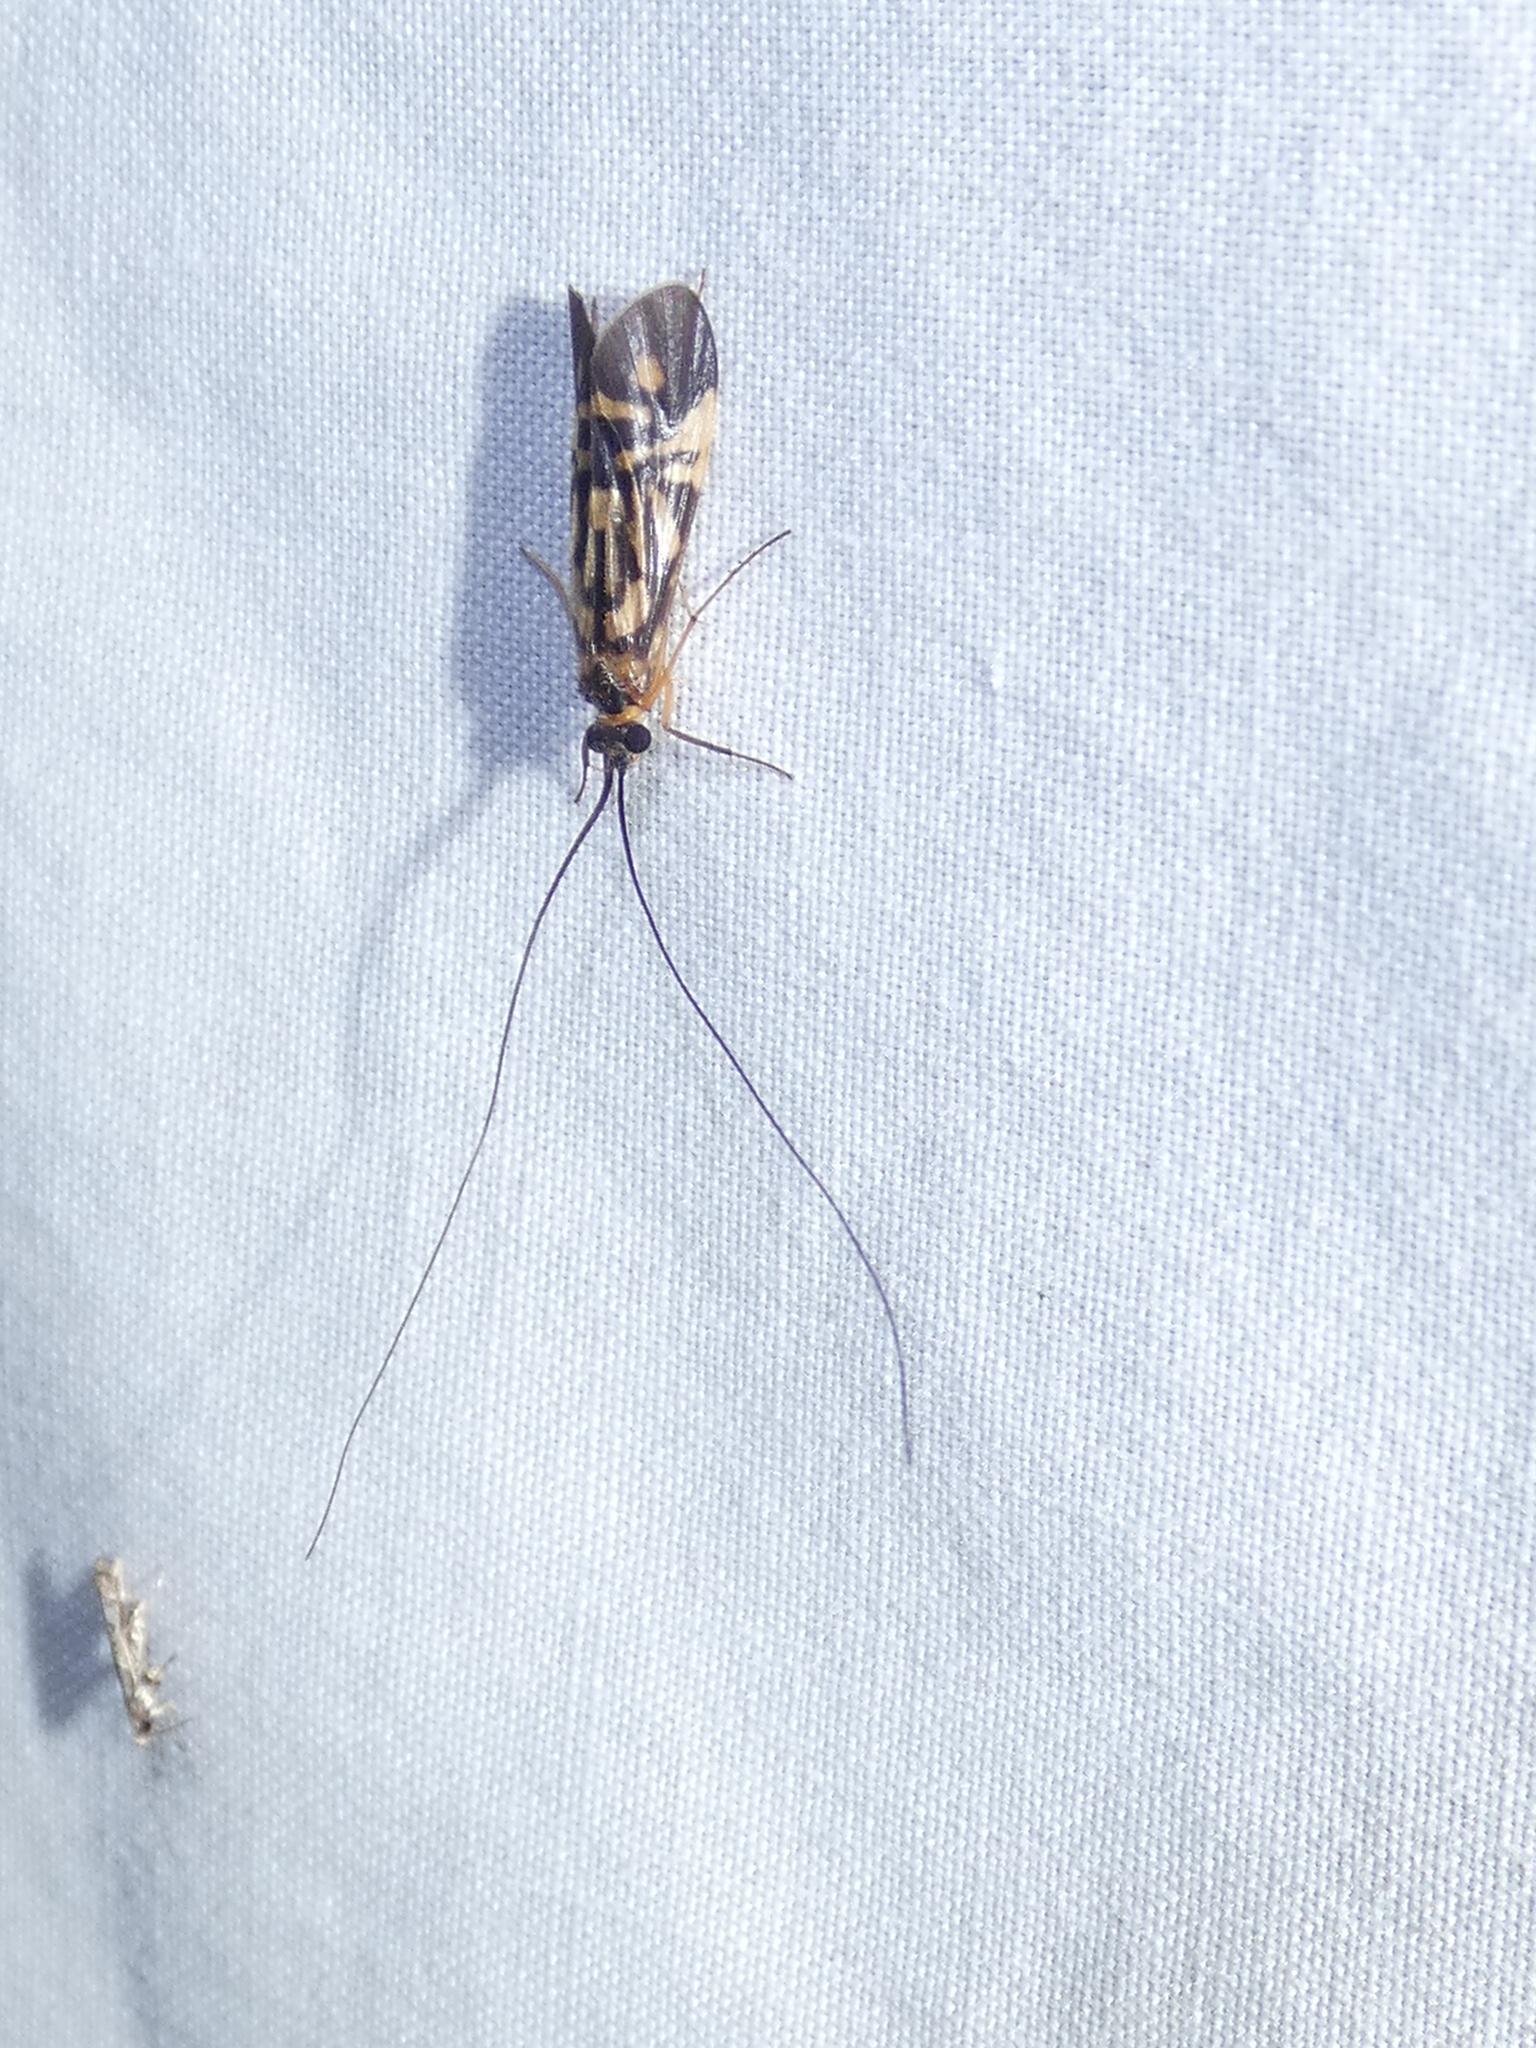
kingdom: Animalia
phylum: Arthropoda
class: Insecta
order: Trichoptera
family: Hydropsychidae
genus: Macrostemum
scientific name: Macrostemum carolina
